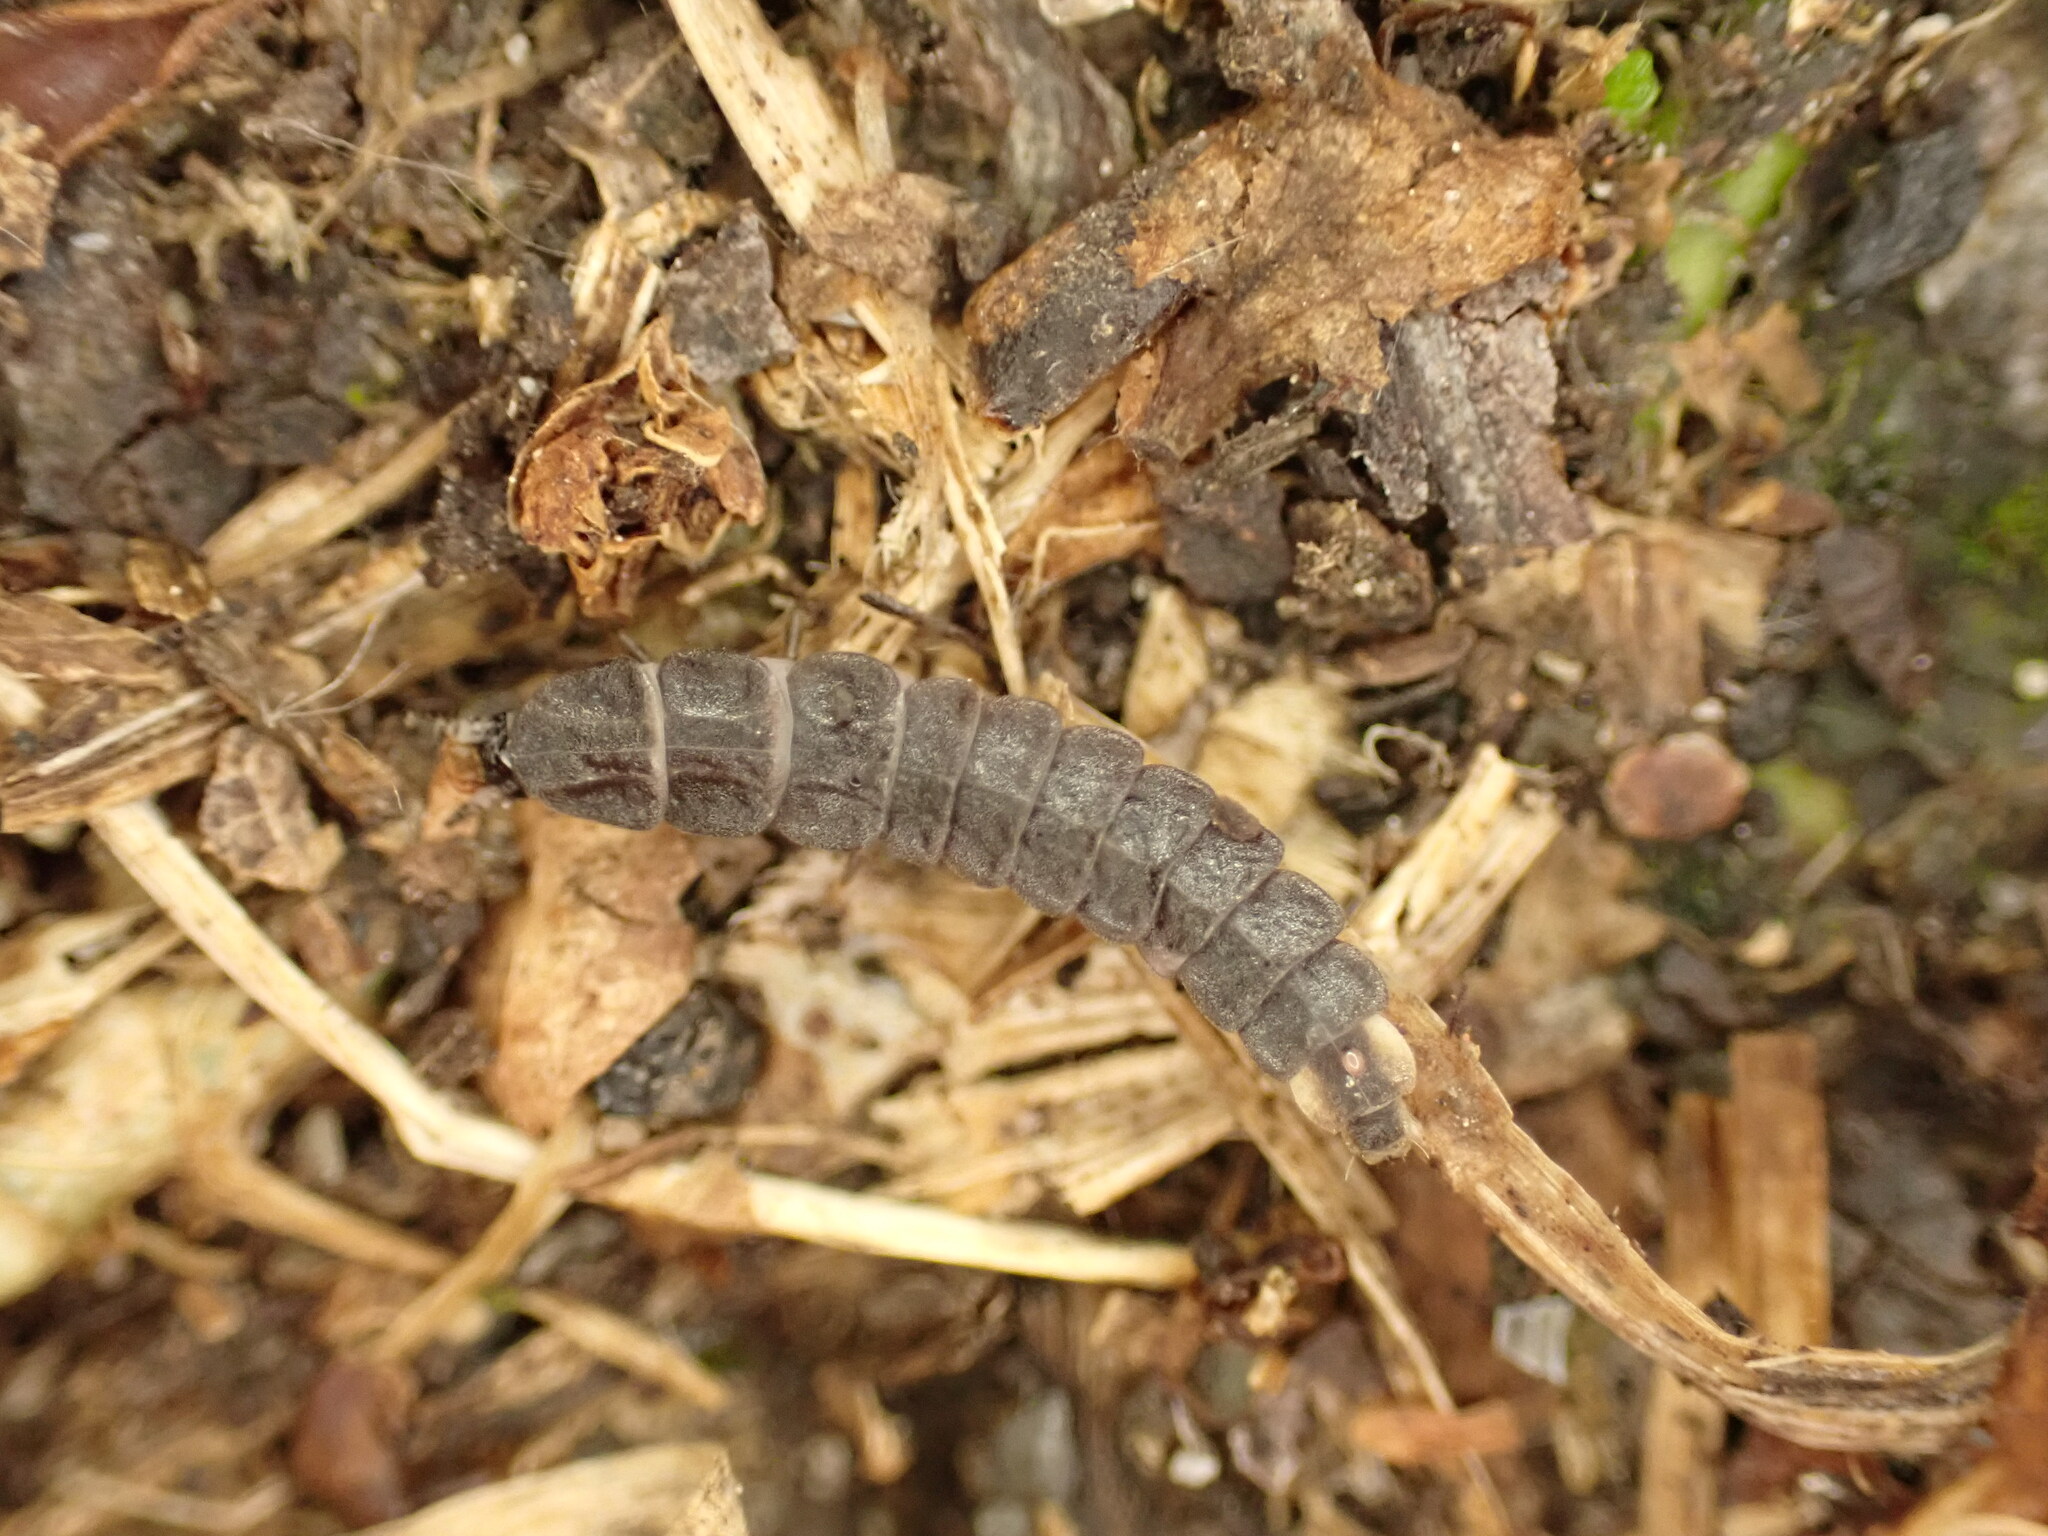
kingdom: Animalia
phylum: Arthropoda
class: Insecta
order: Coleoptera
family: Lampyridae
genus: Phosphaenus
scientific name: Phosphaenus hemipterus
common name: Short-winged firefly
